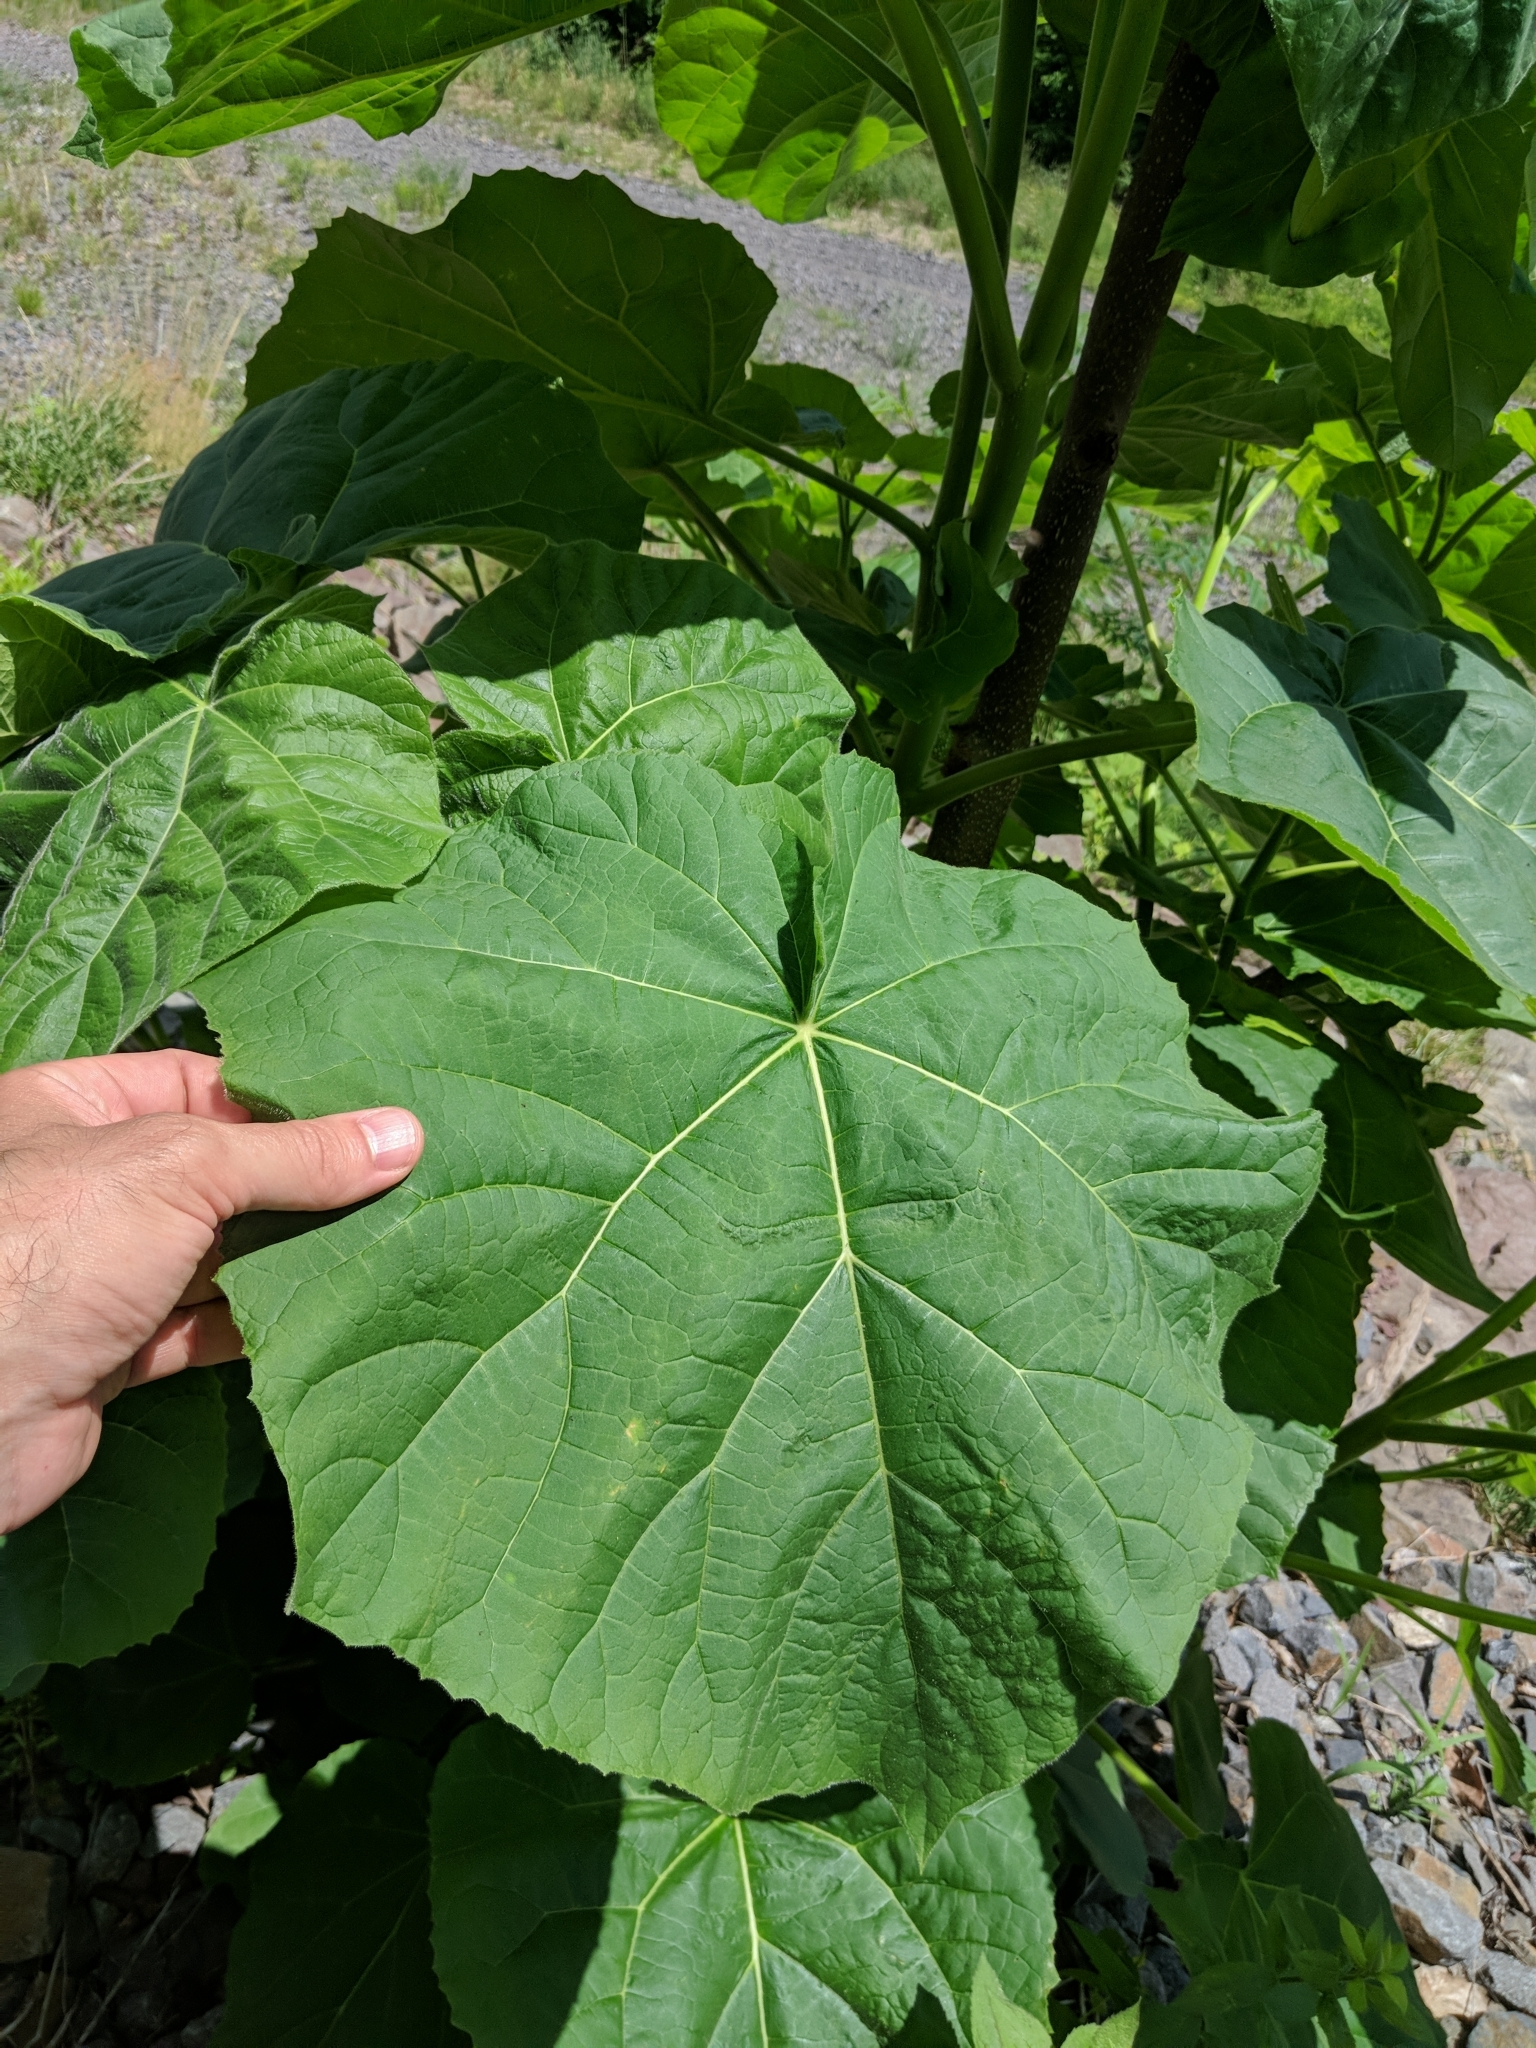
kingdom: Plantae
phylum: Tracheophyta
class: Magnoliopsida
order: Lamiales
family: Paulowniaceae
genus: Paulownia
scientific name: Paulownia tomentosa
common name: Foxglove-tree
